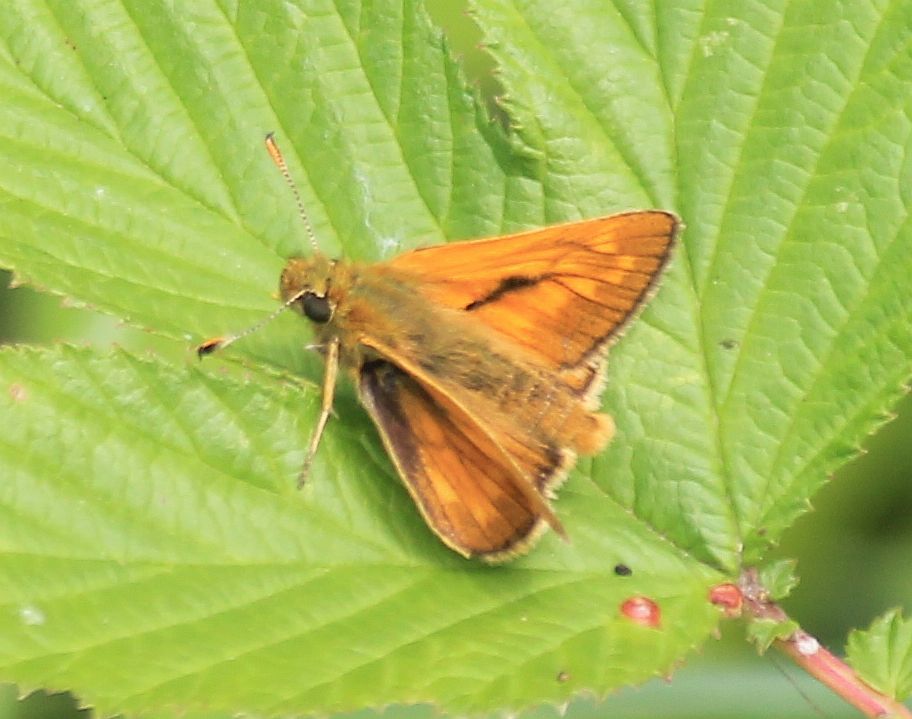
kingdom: Animalia
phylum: Arthropoda
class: Insecta
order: Lepidoptera
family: Hesperiidae
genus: Ochlodes
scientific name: Ochlodes venata
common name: Large skipper
